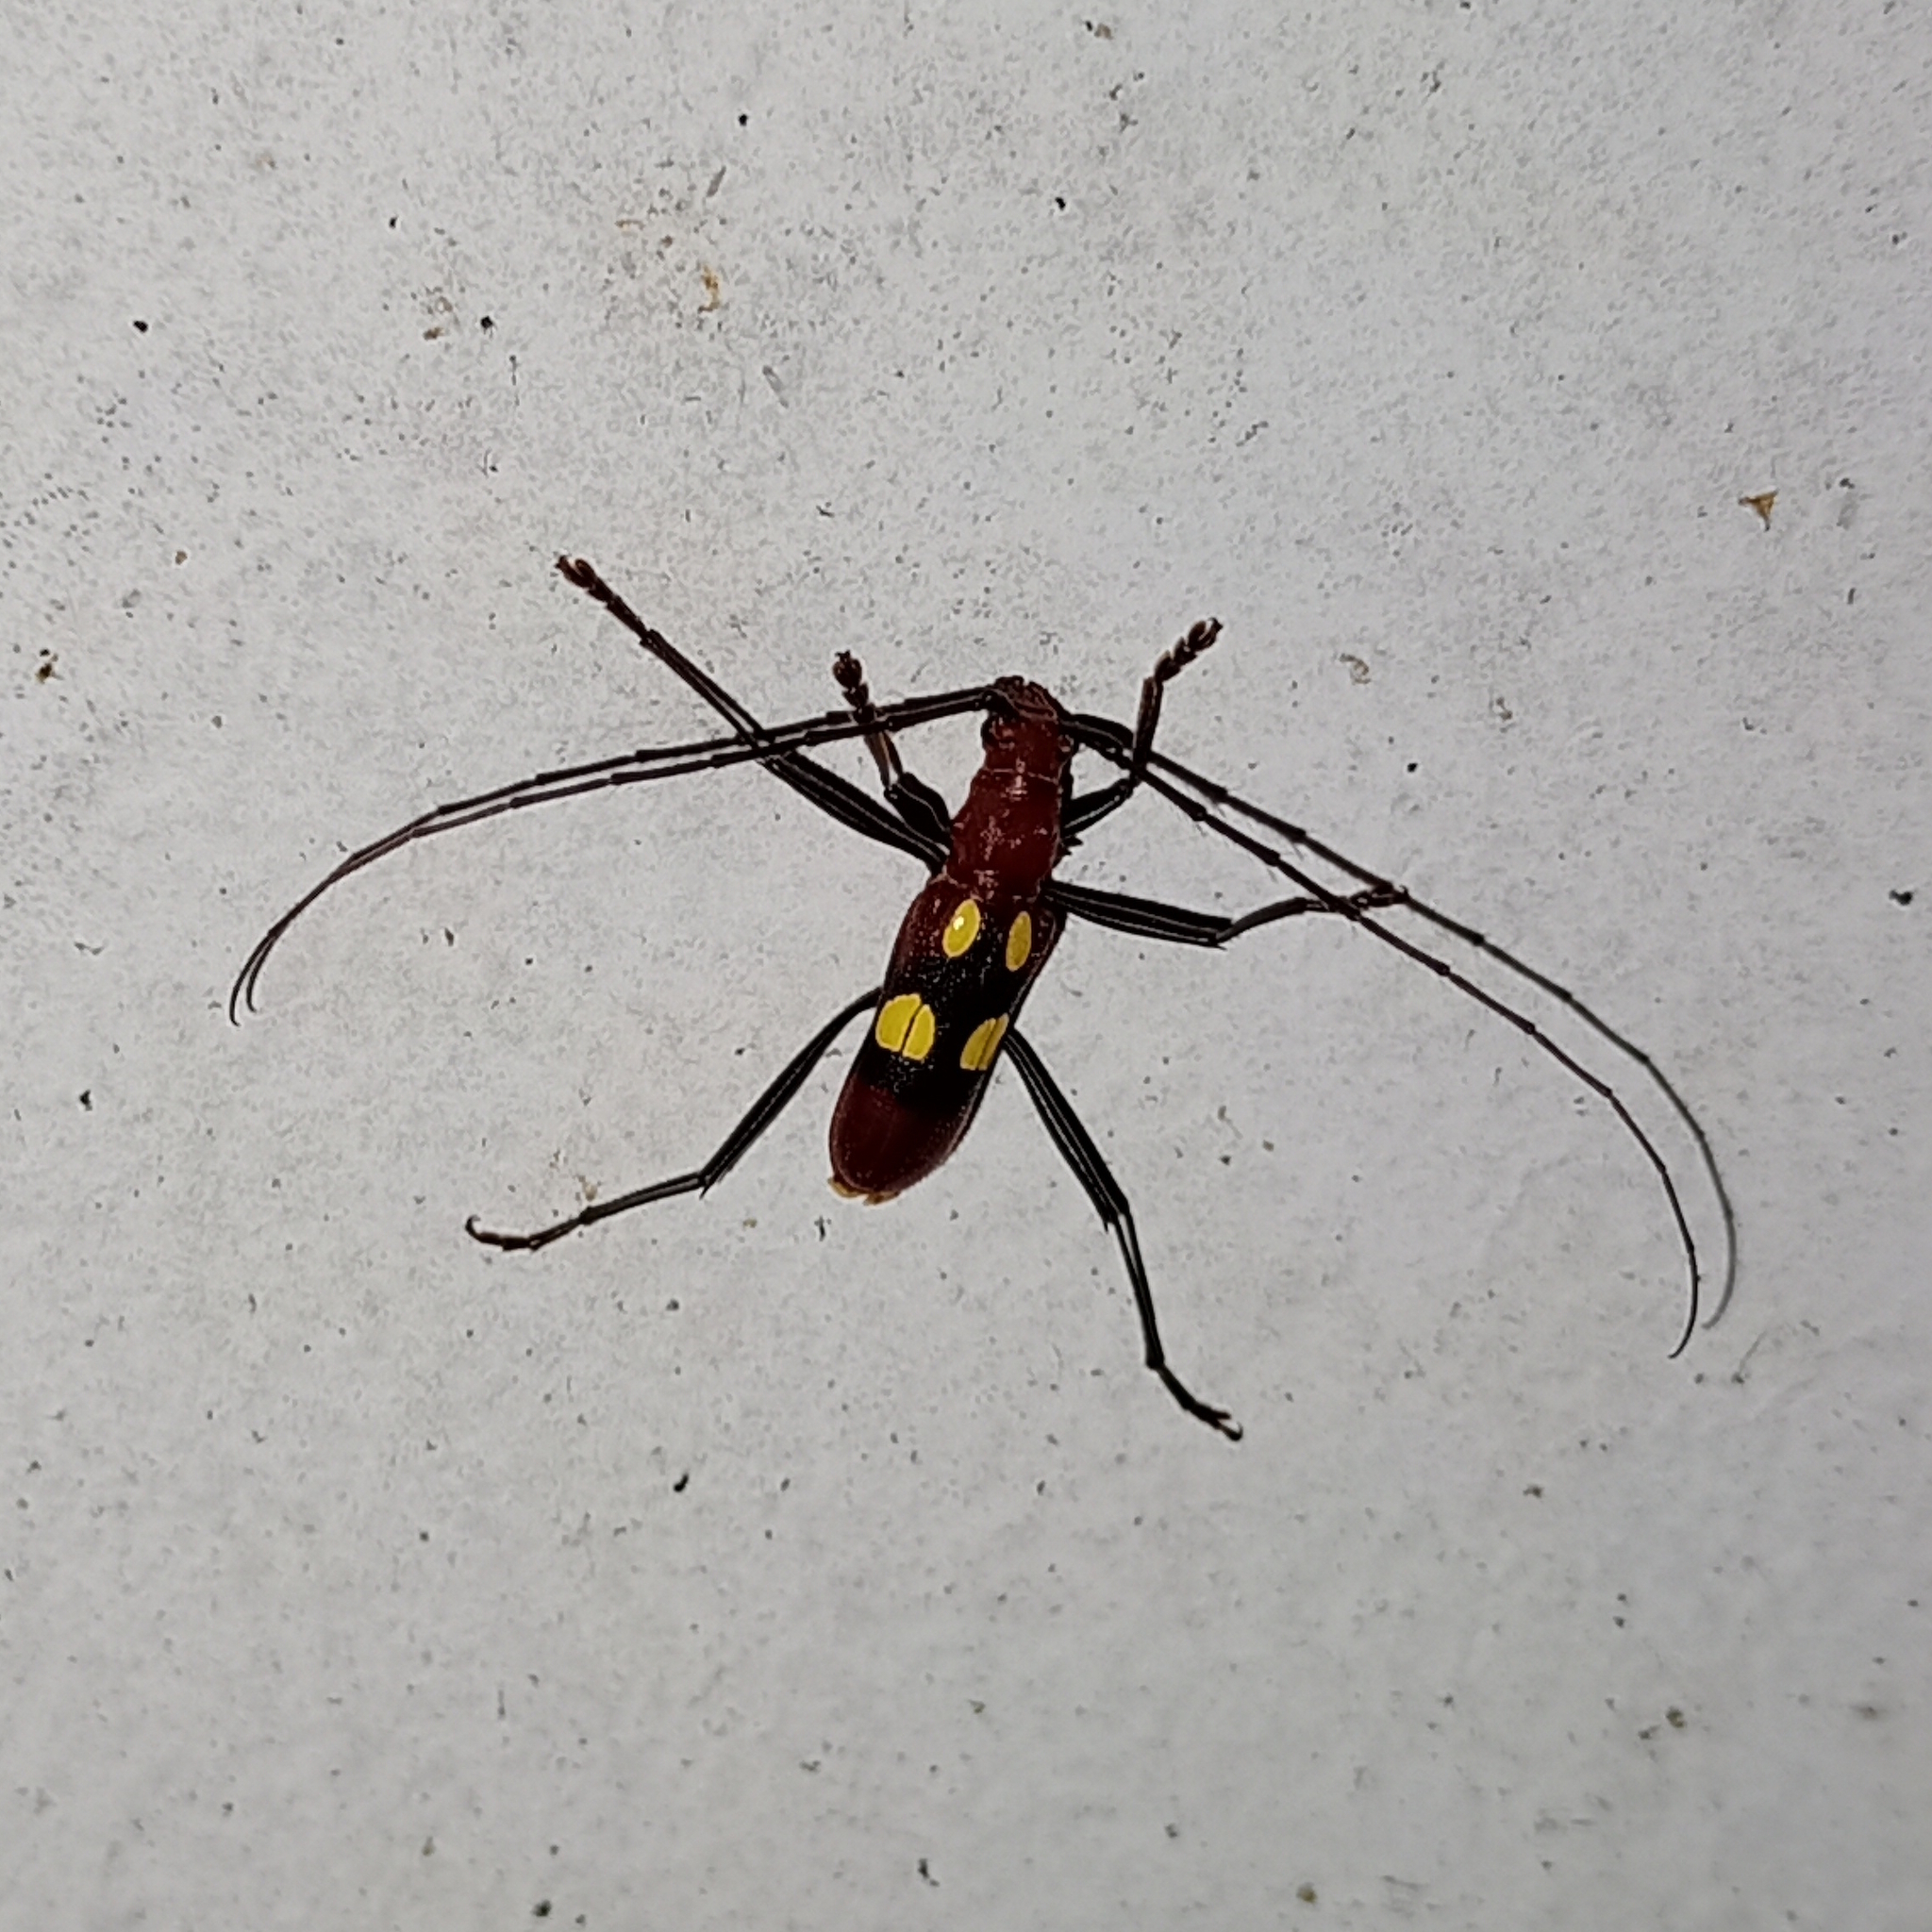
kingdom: Animalia
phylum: Arthropoda
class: Insecta
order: Coleoptera
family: Cerambycidae
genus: Pronuba
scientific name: Pronuba decora
